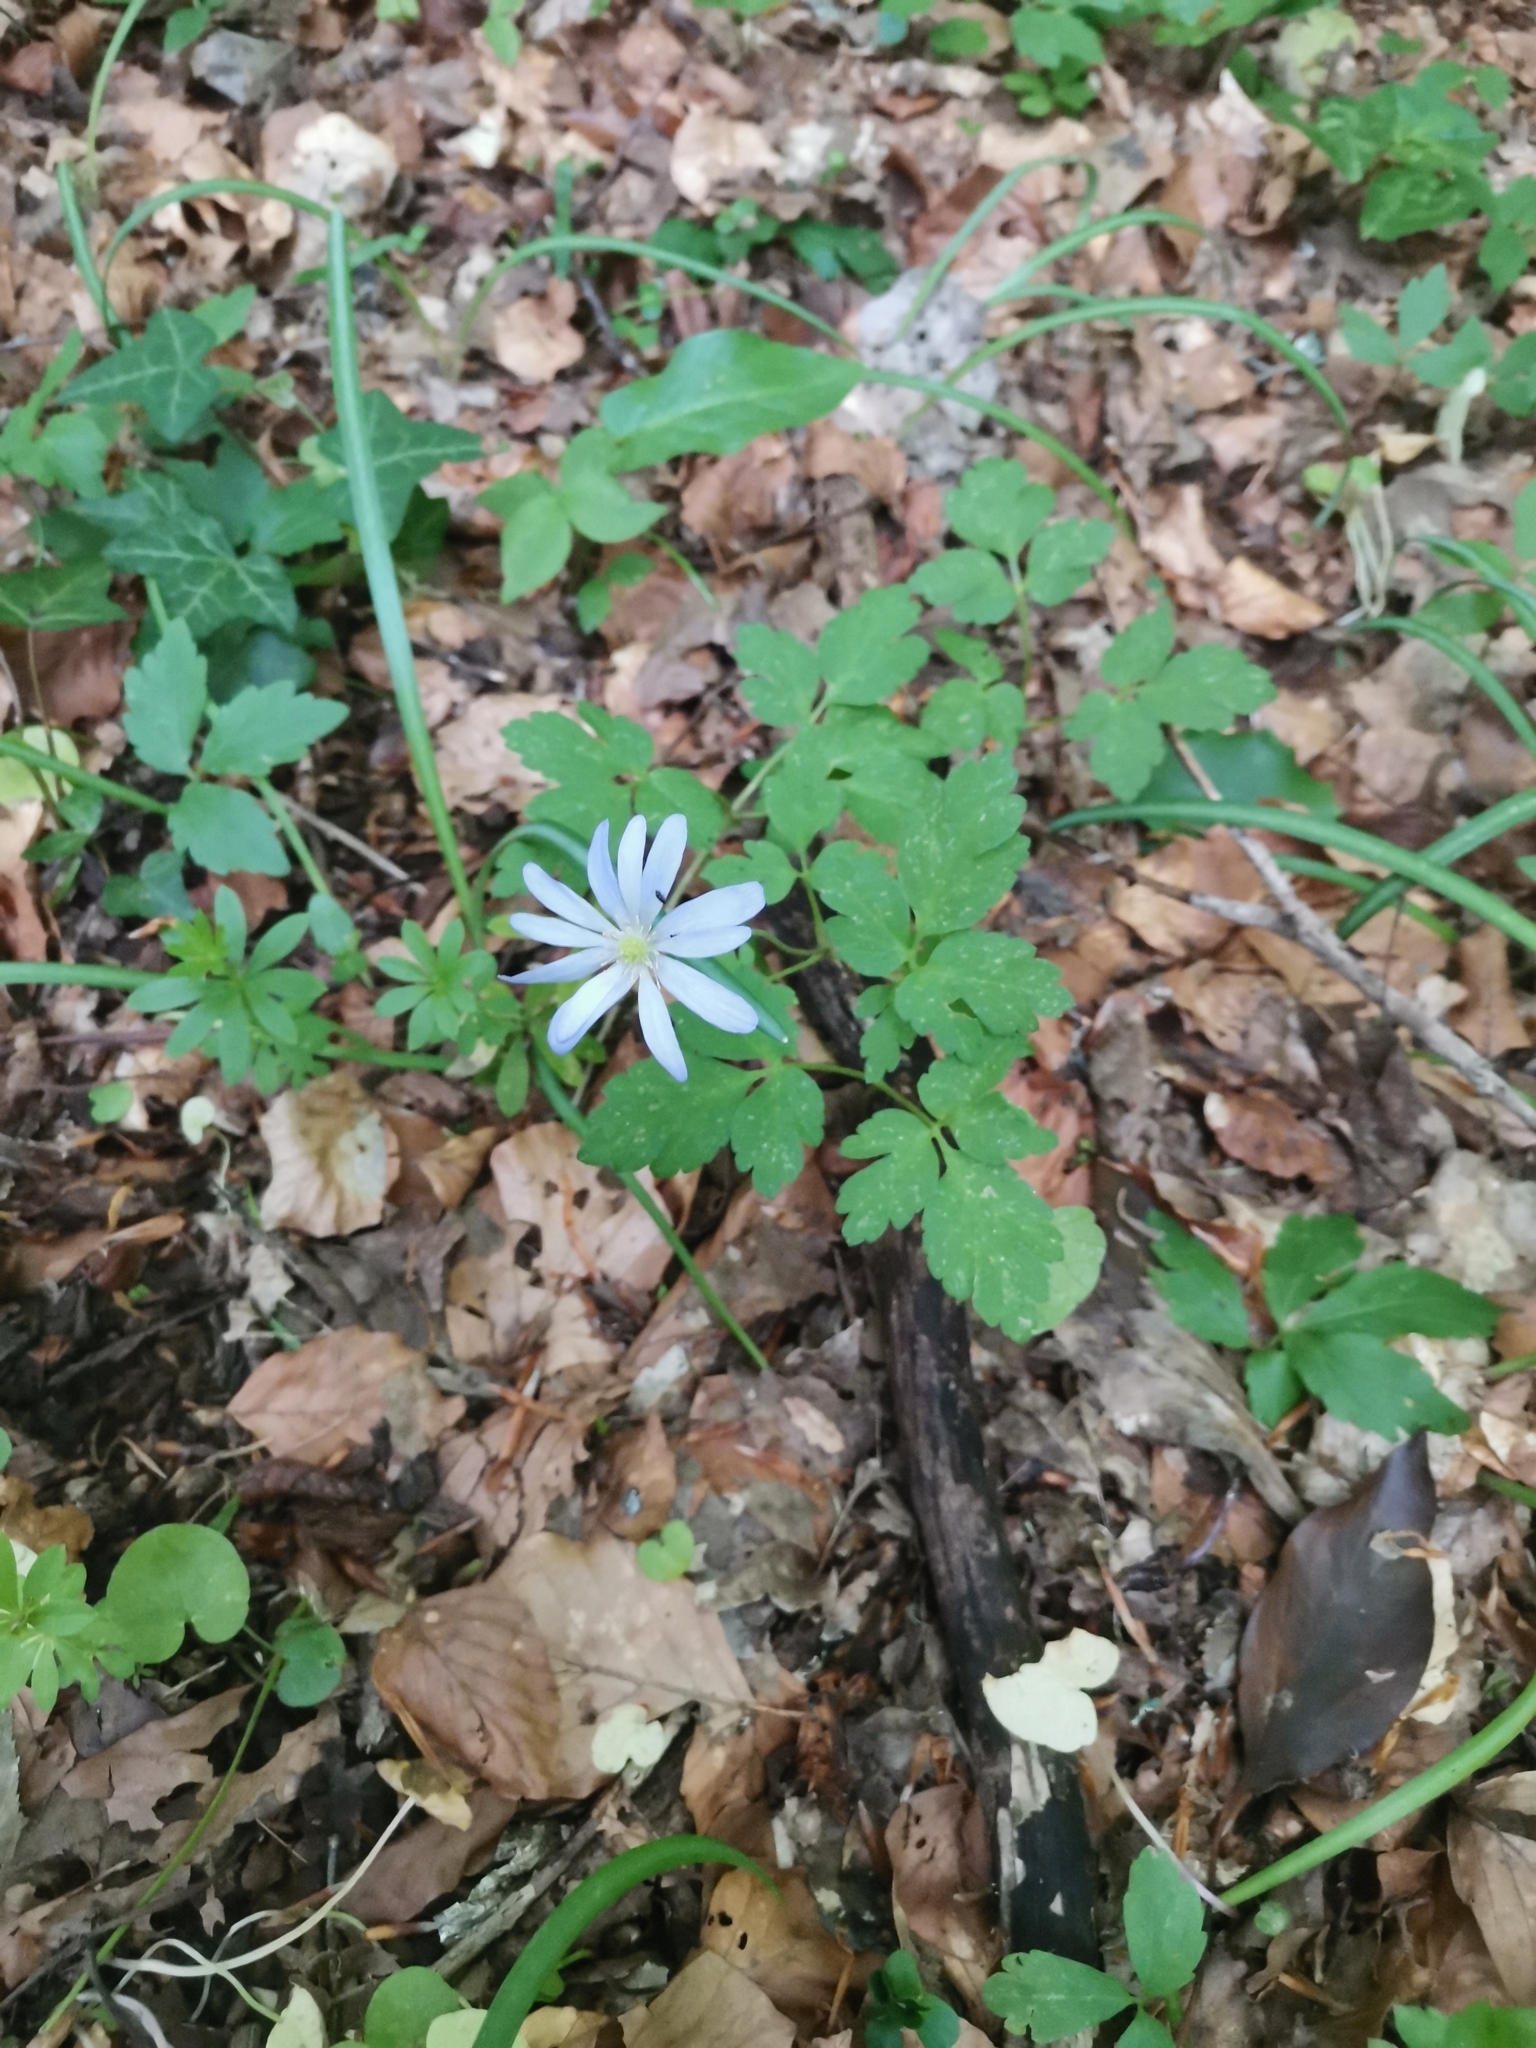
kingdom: Plantae
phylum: Tracheophyta
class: Magnoliopsida
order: Ranunculales
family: Ranunculaceae
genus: Anemone
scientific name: Anemone apennina
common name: Blue anemone
